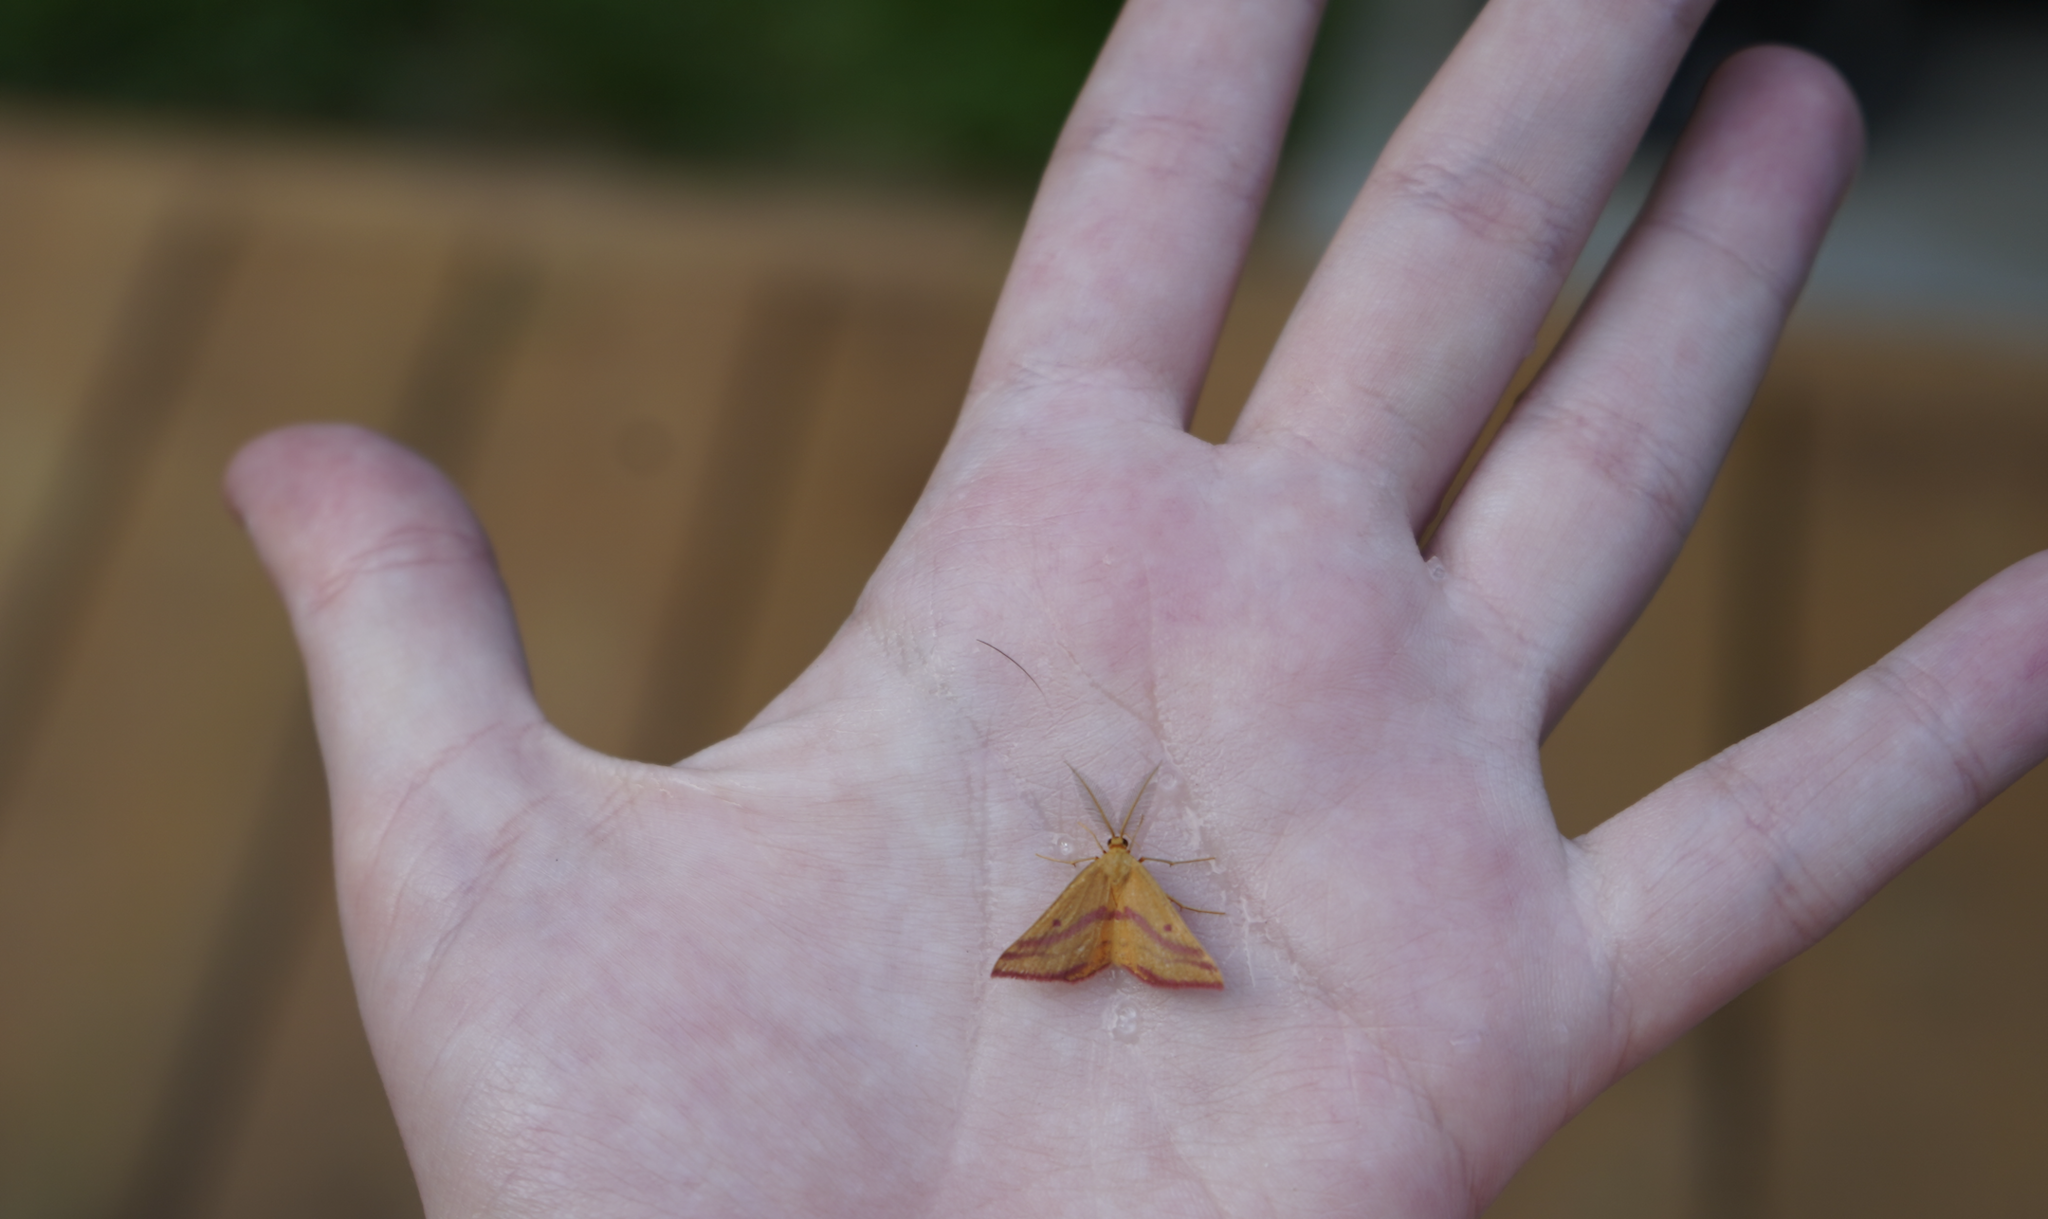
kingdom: Animalia
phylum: Arthropoda
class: Insecta
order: Lepidoptera
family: Geometridae
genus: Haematopis
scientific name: Haematopis grataria
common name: Chickweed geometer
